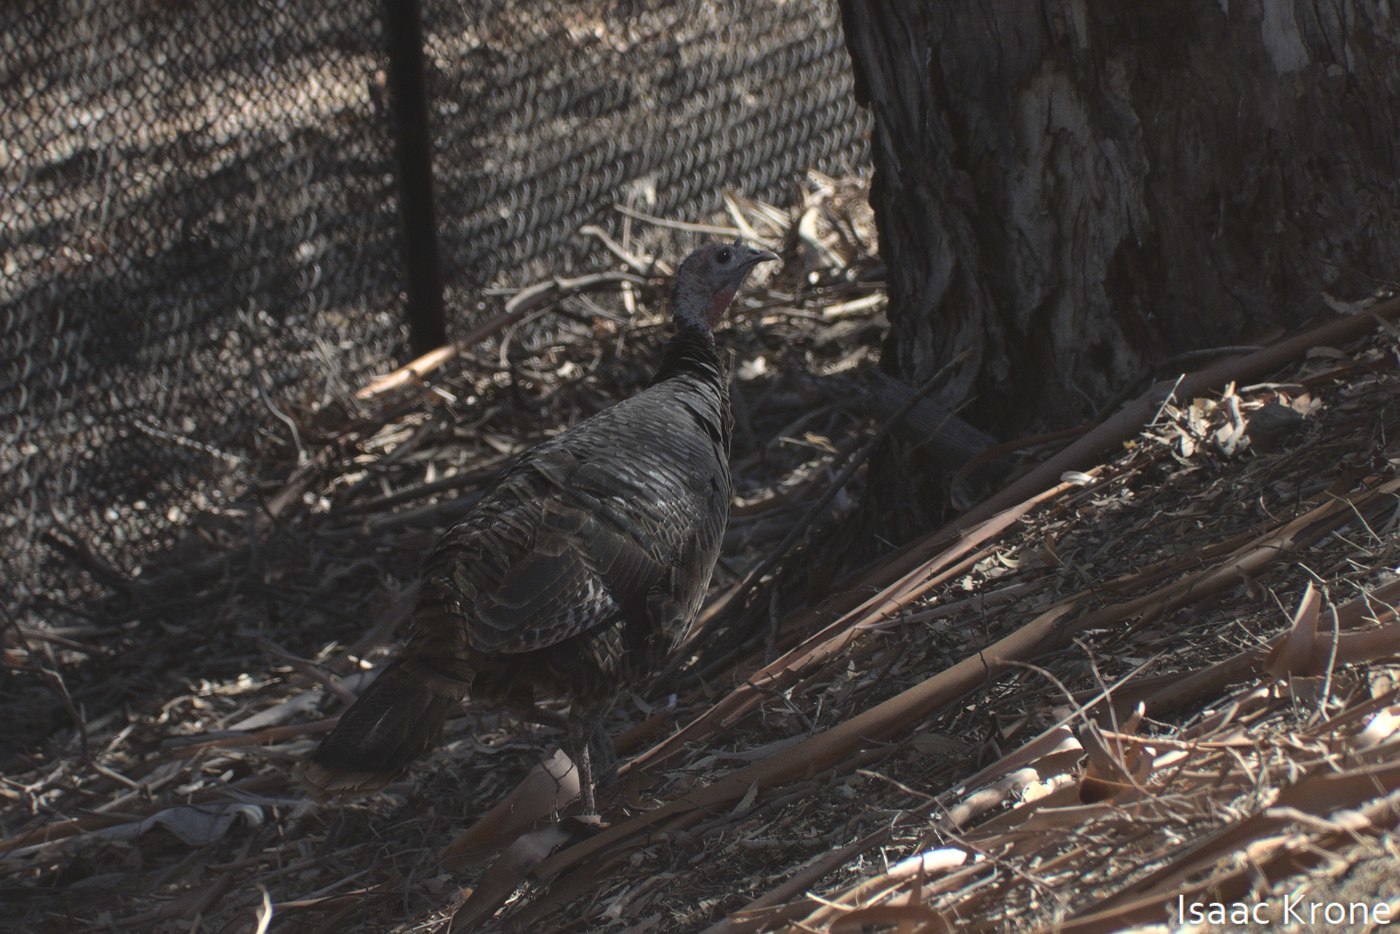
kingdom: Animalia
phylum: Chordata
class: Aves
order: Galliformes
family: Phasianidae
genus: Meleagris
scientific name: Meleagris gallopavo
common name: Wild turkey
